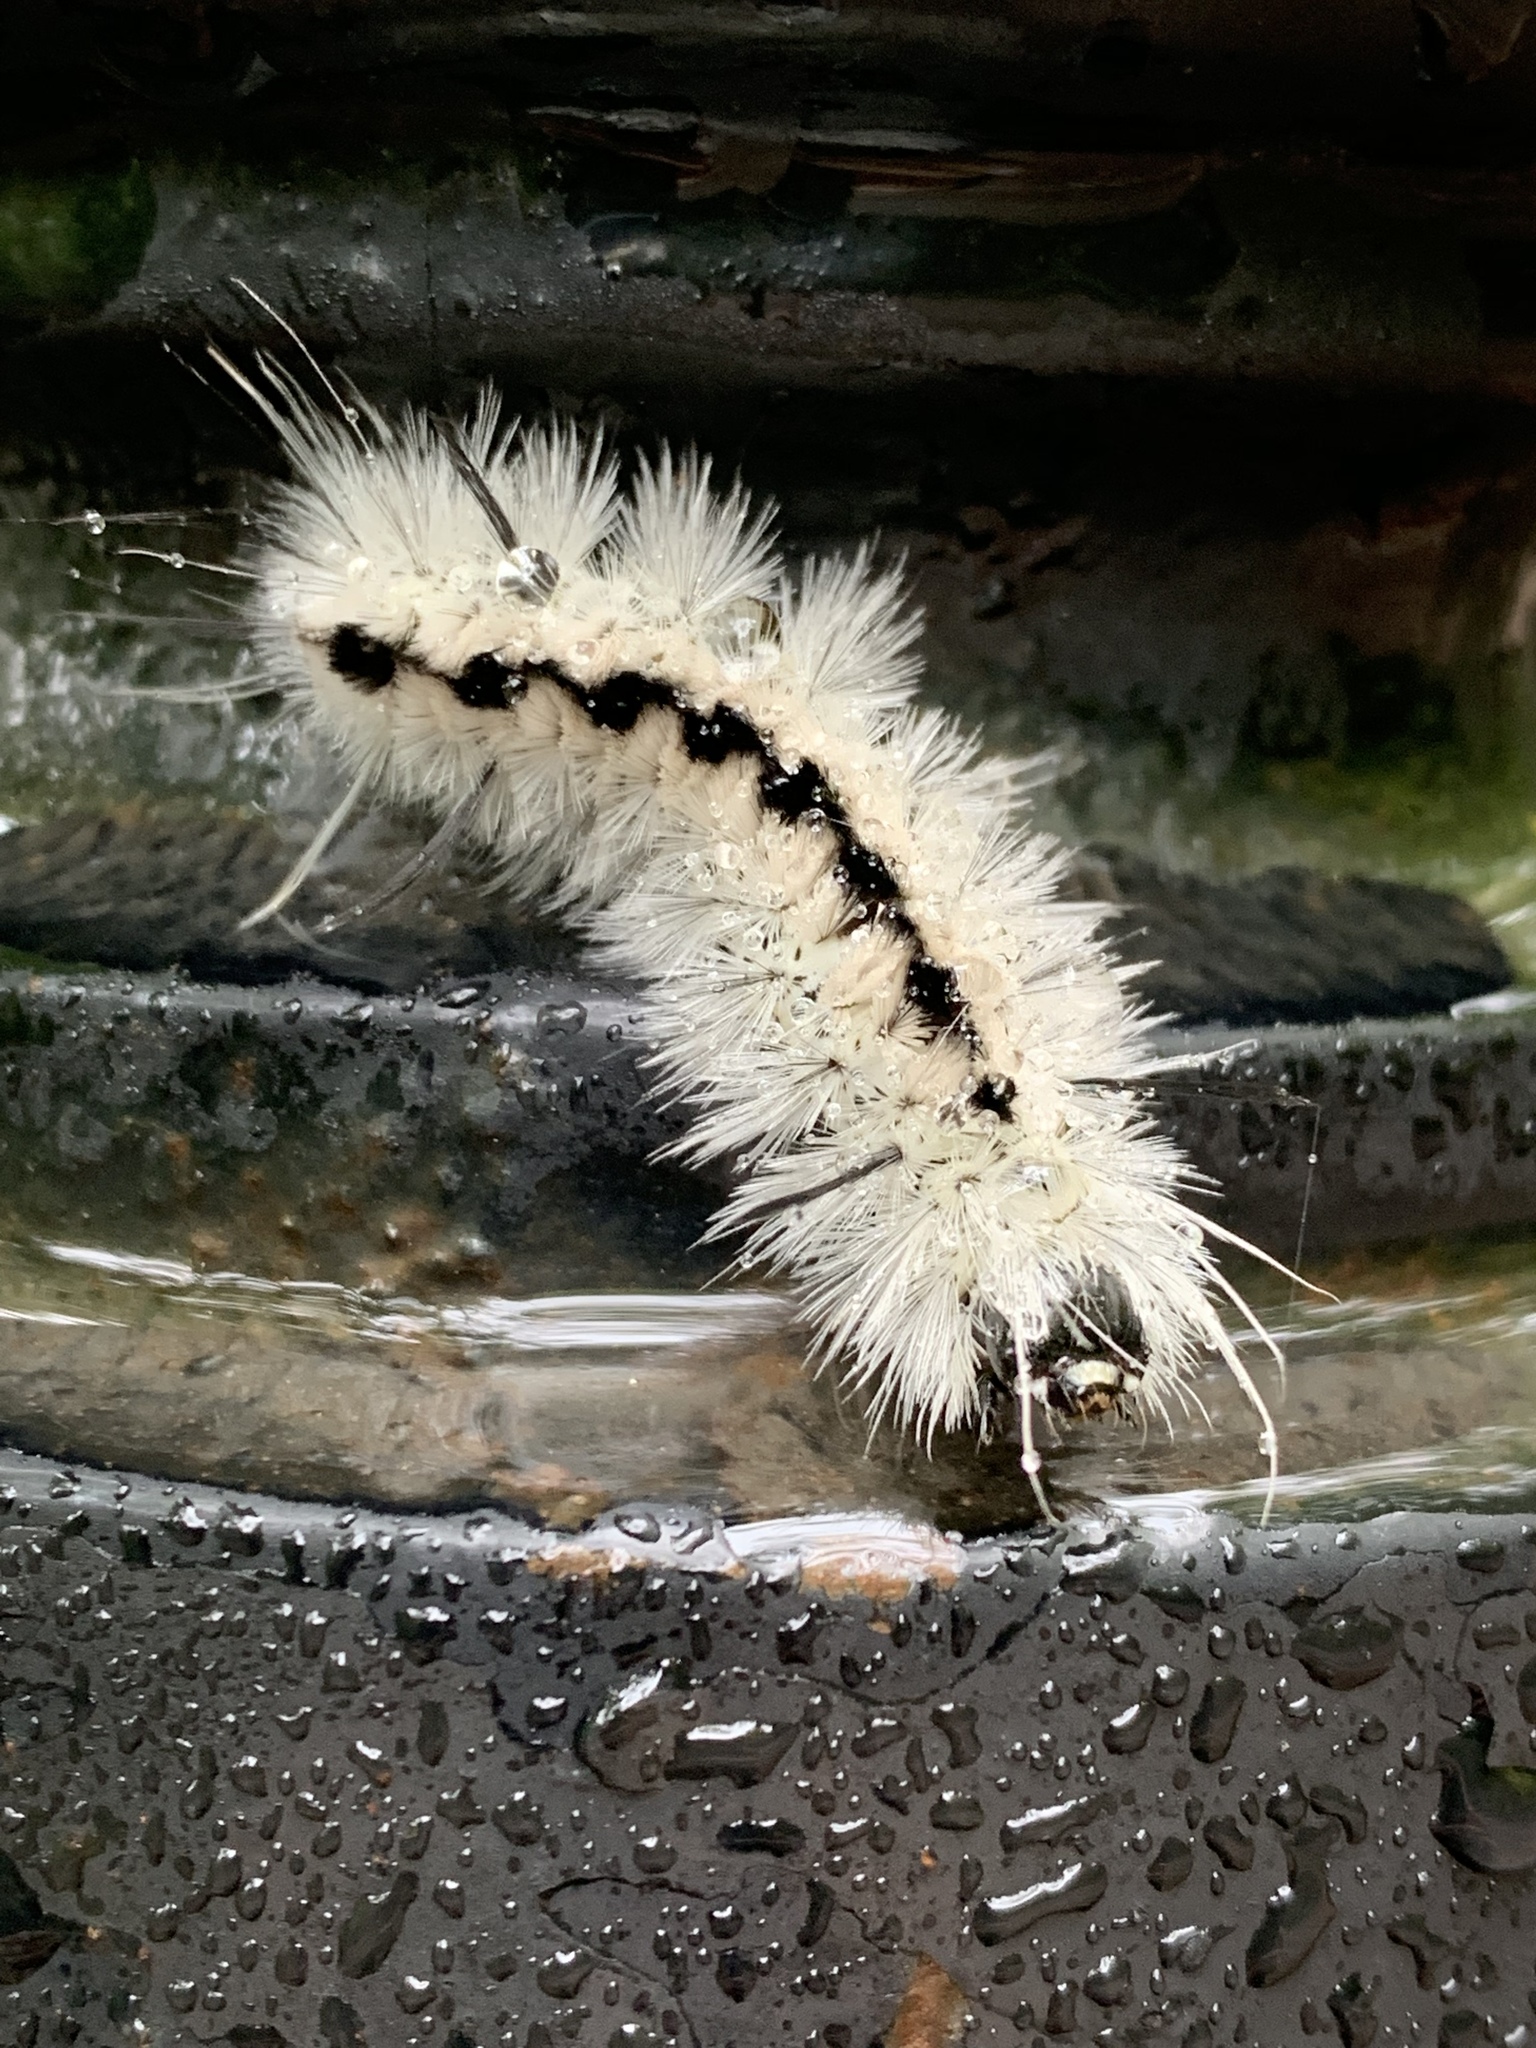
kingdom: Animalia
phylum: Arthropoda
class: Insecta
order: Lepidoptera
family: Erebidae
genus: Lophocampa
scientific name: Lophocampa caryae
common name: Hickory tussock moth
